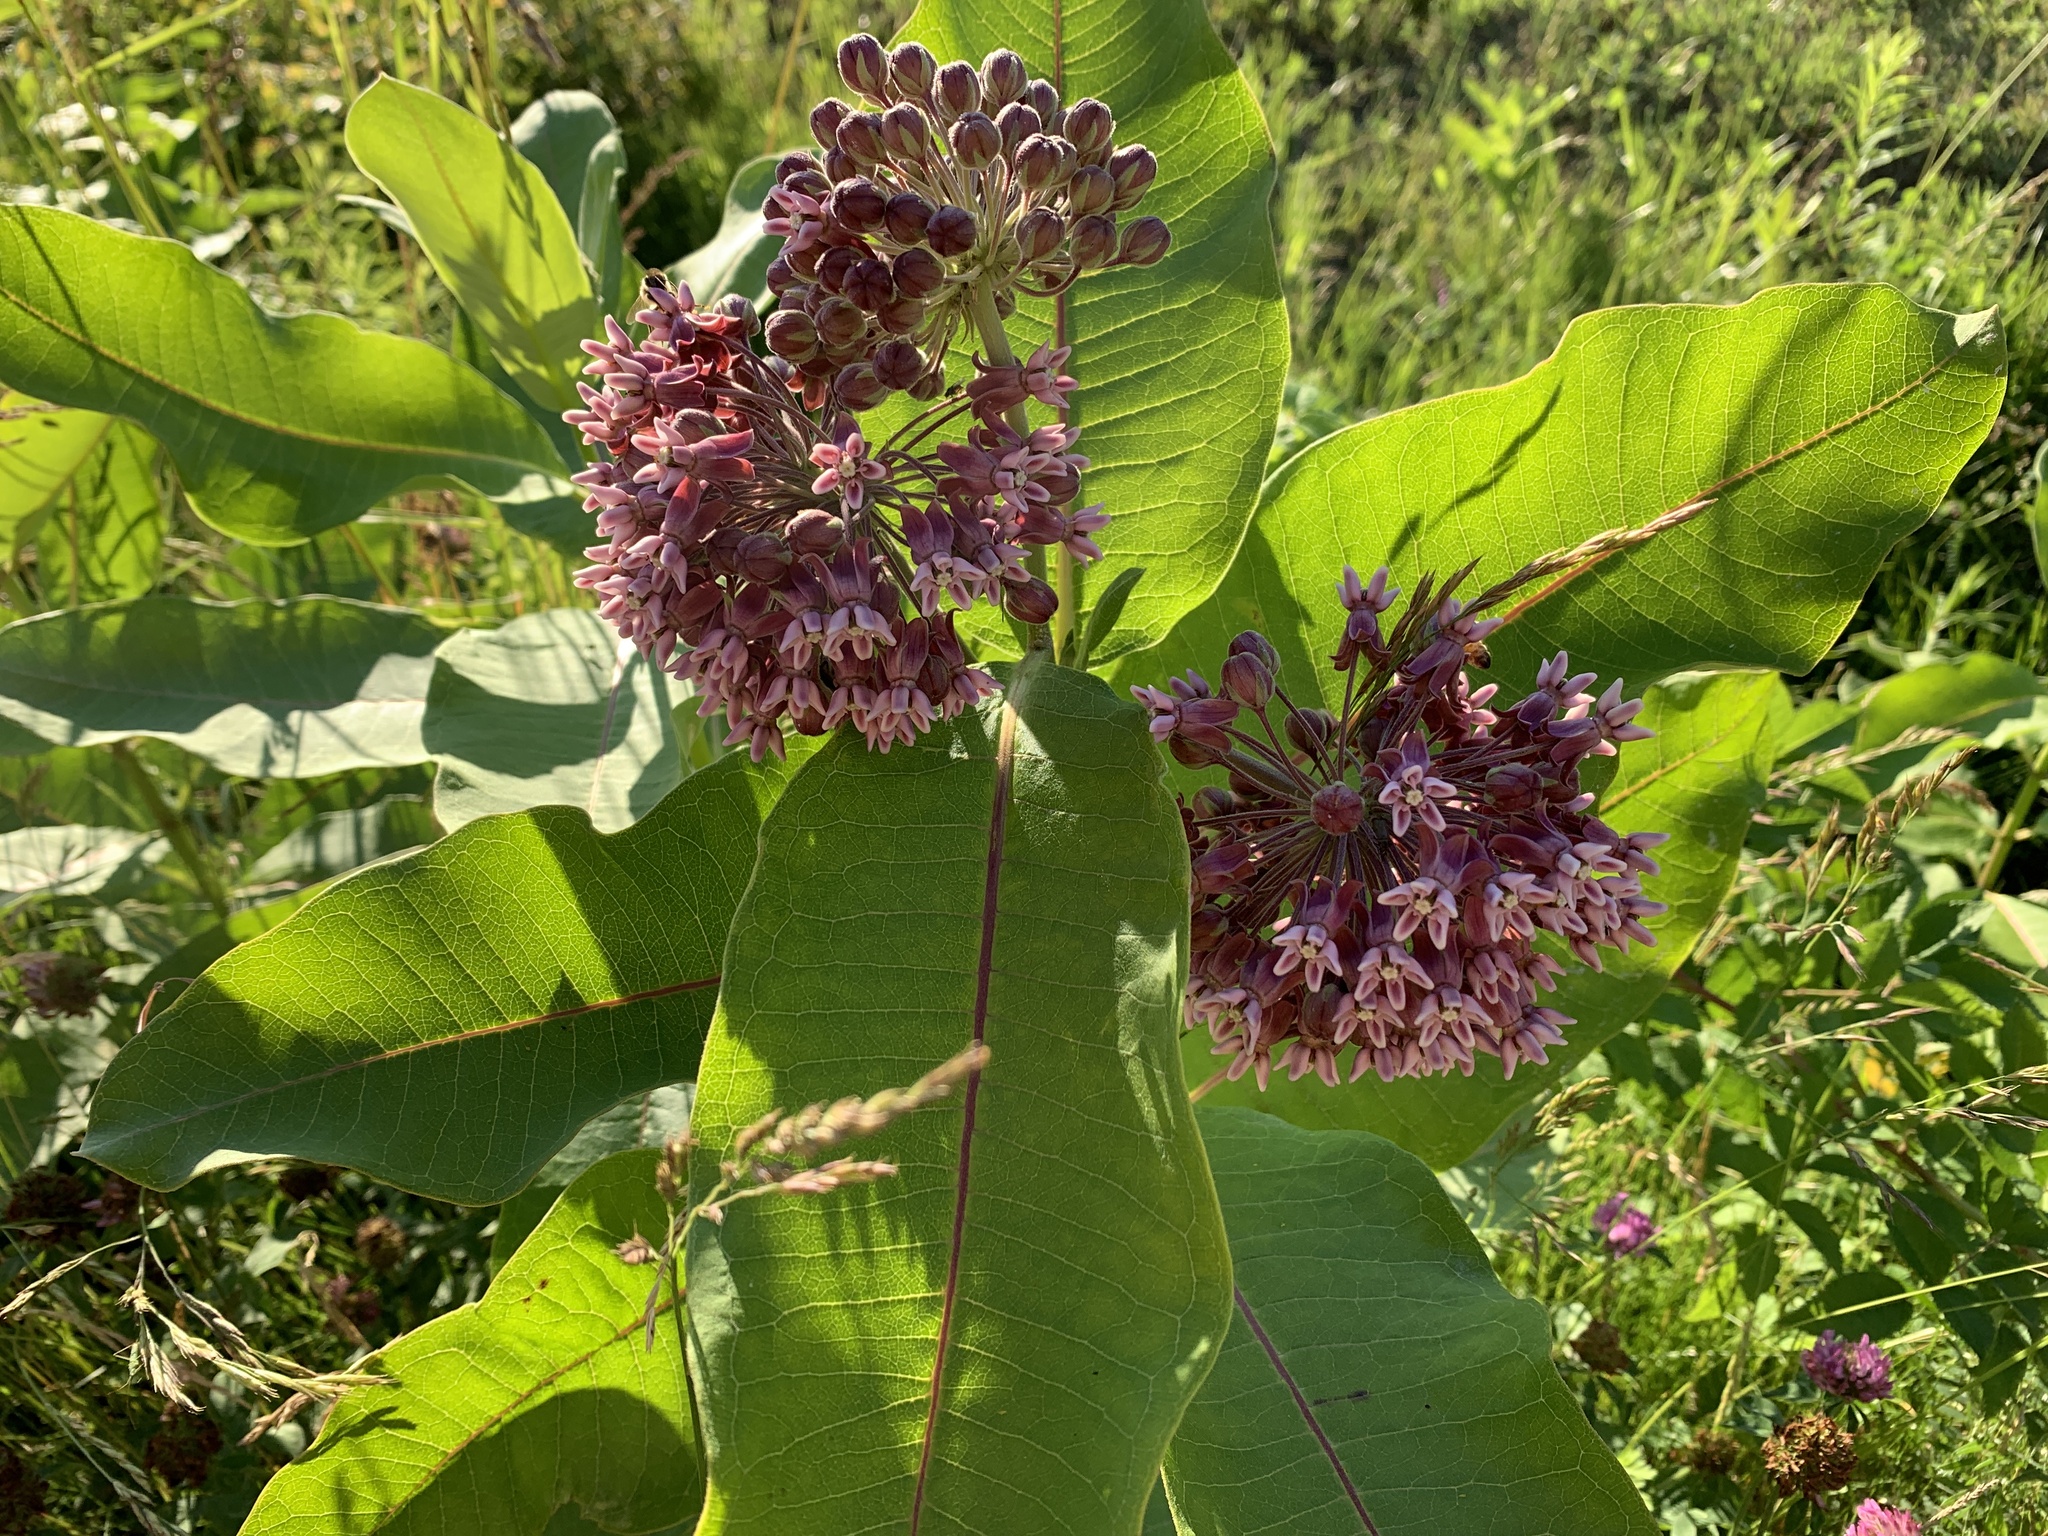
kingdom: Plantae
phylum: Tracheophyta
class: Magnoliopsida
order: Gentianales
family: Apocynaceae
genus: Asclepias
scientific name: Asclepias syriaca
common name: Common milkweed
